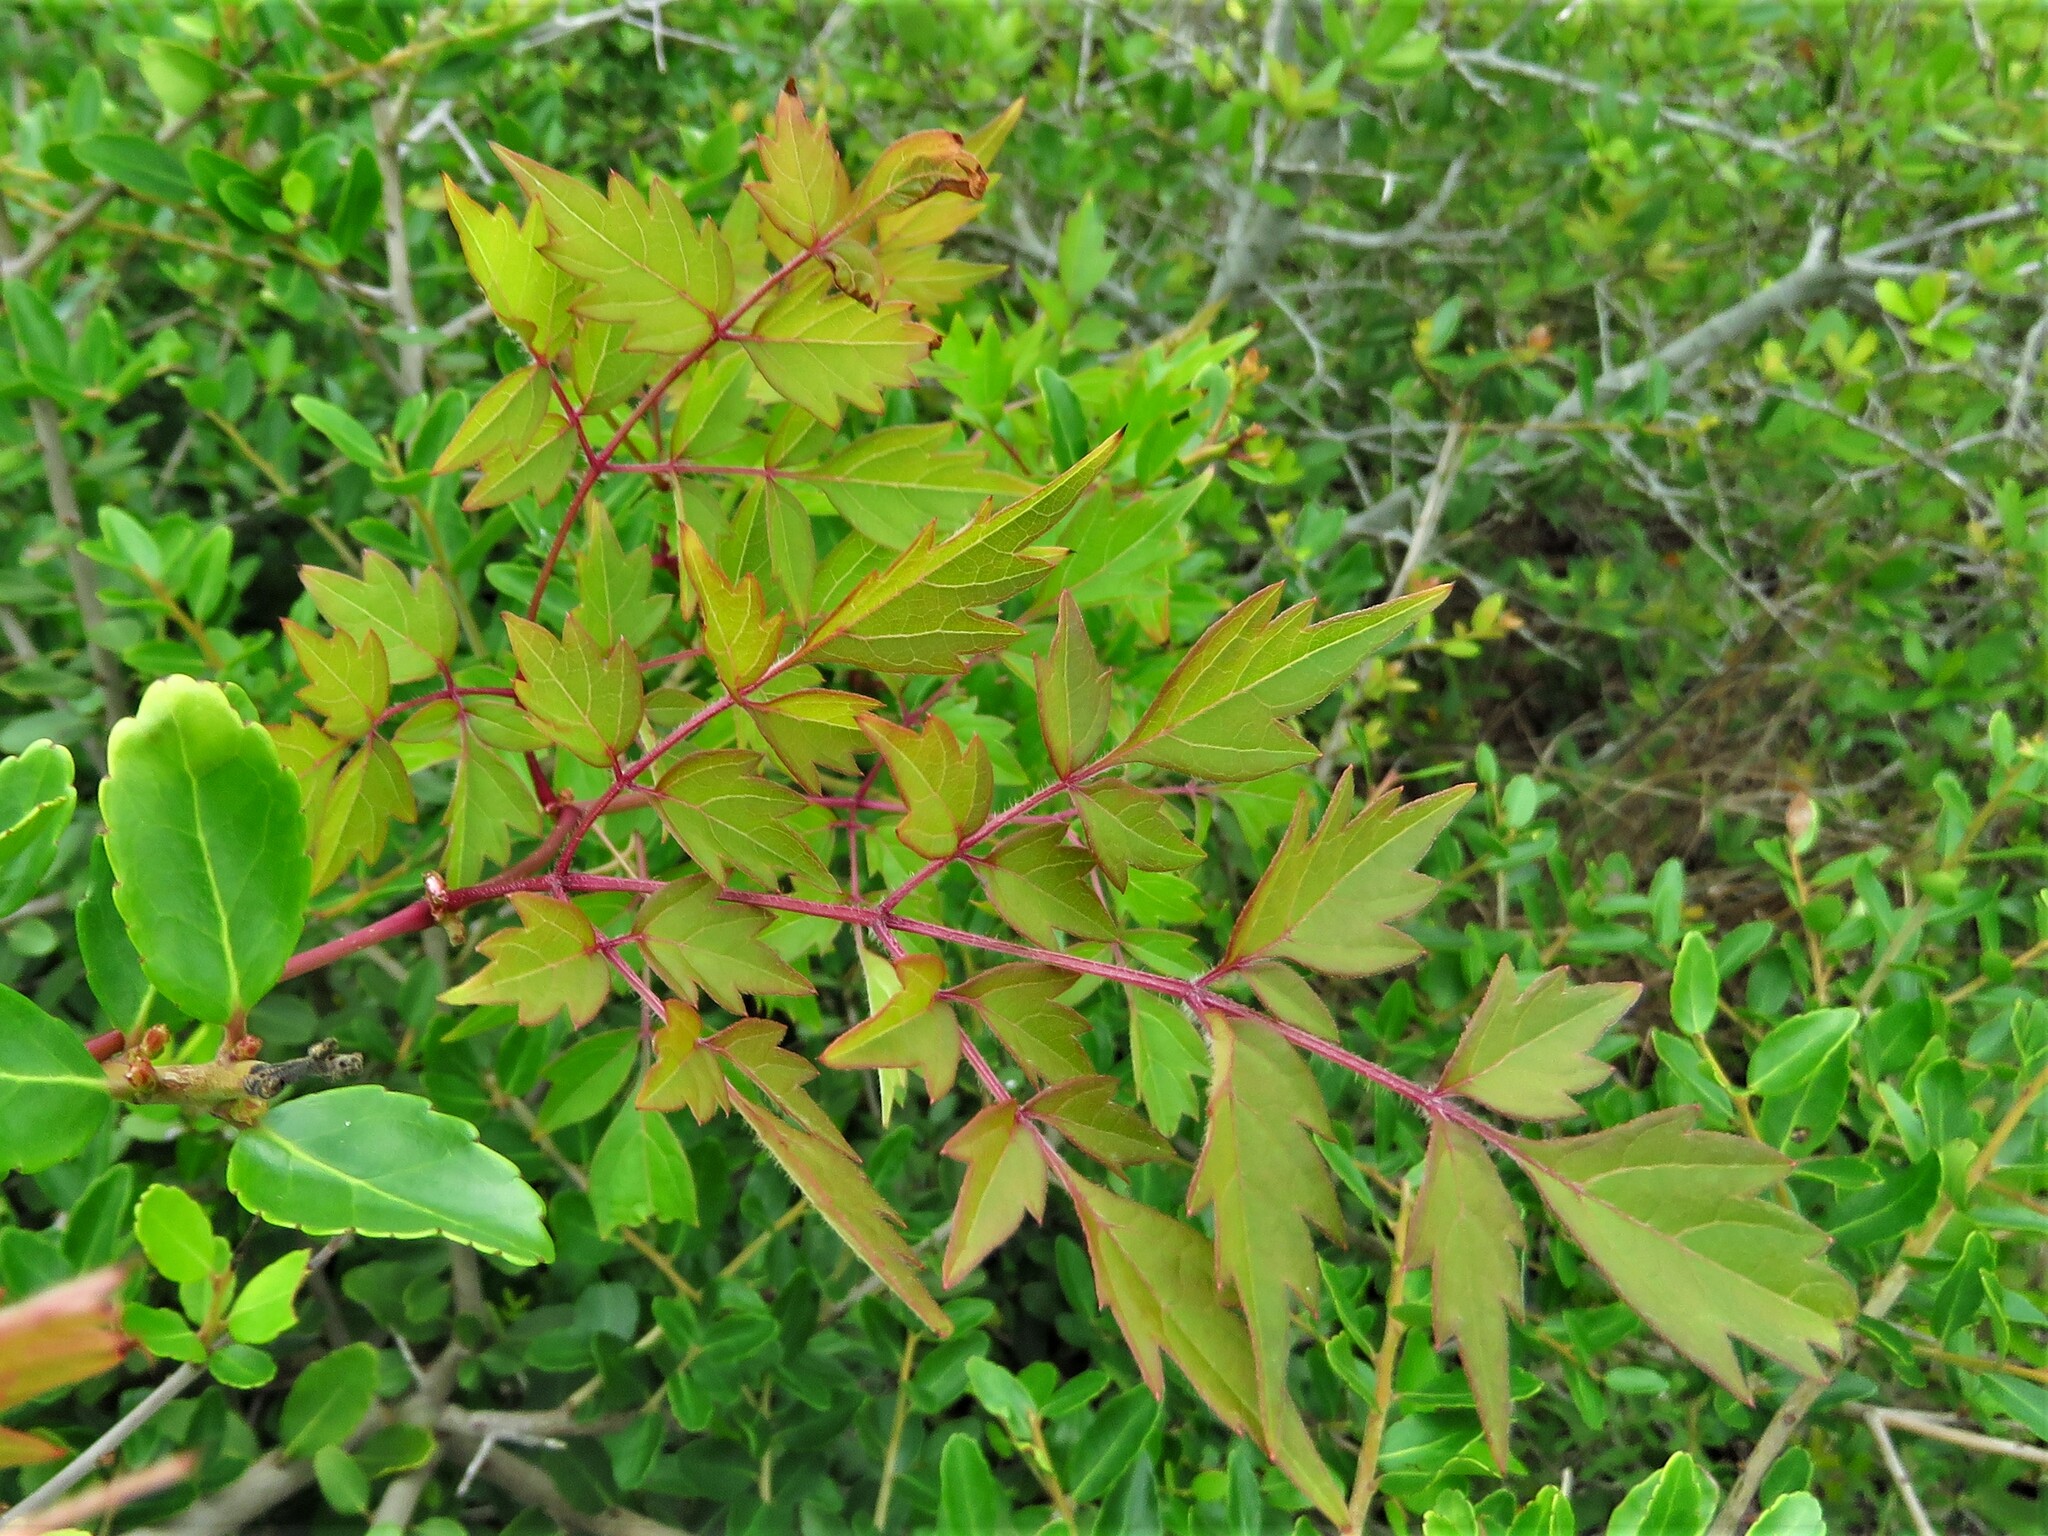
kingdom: Plantae
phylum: Tracheophyta
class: Magnoliopsida
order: Vitales
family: Vitaceae
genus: Nekemias
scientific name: Nekemias arborea
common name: Peppervine
